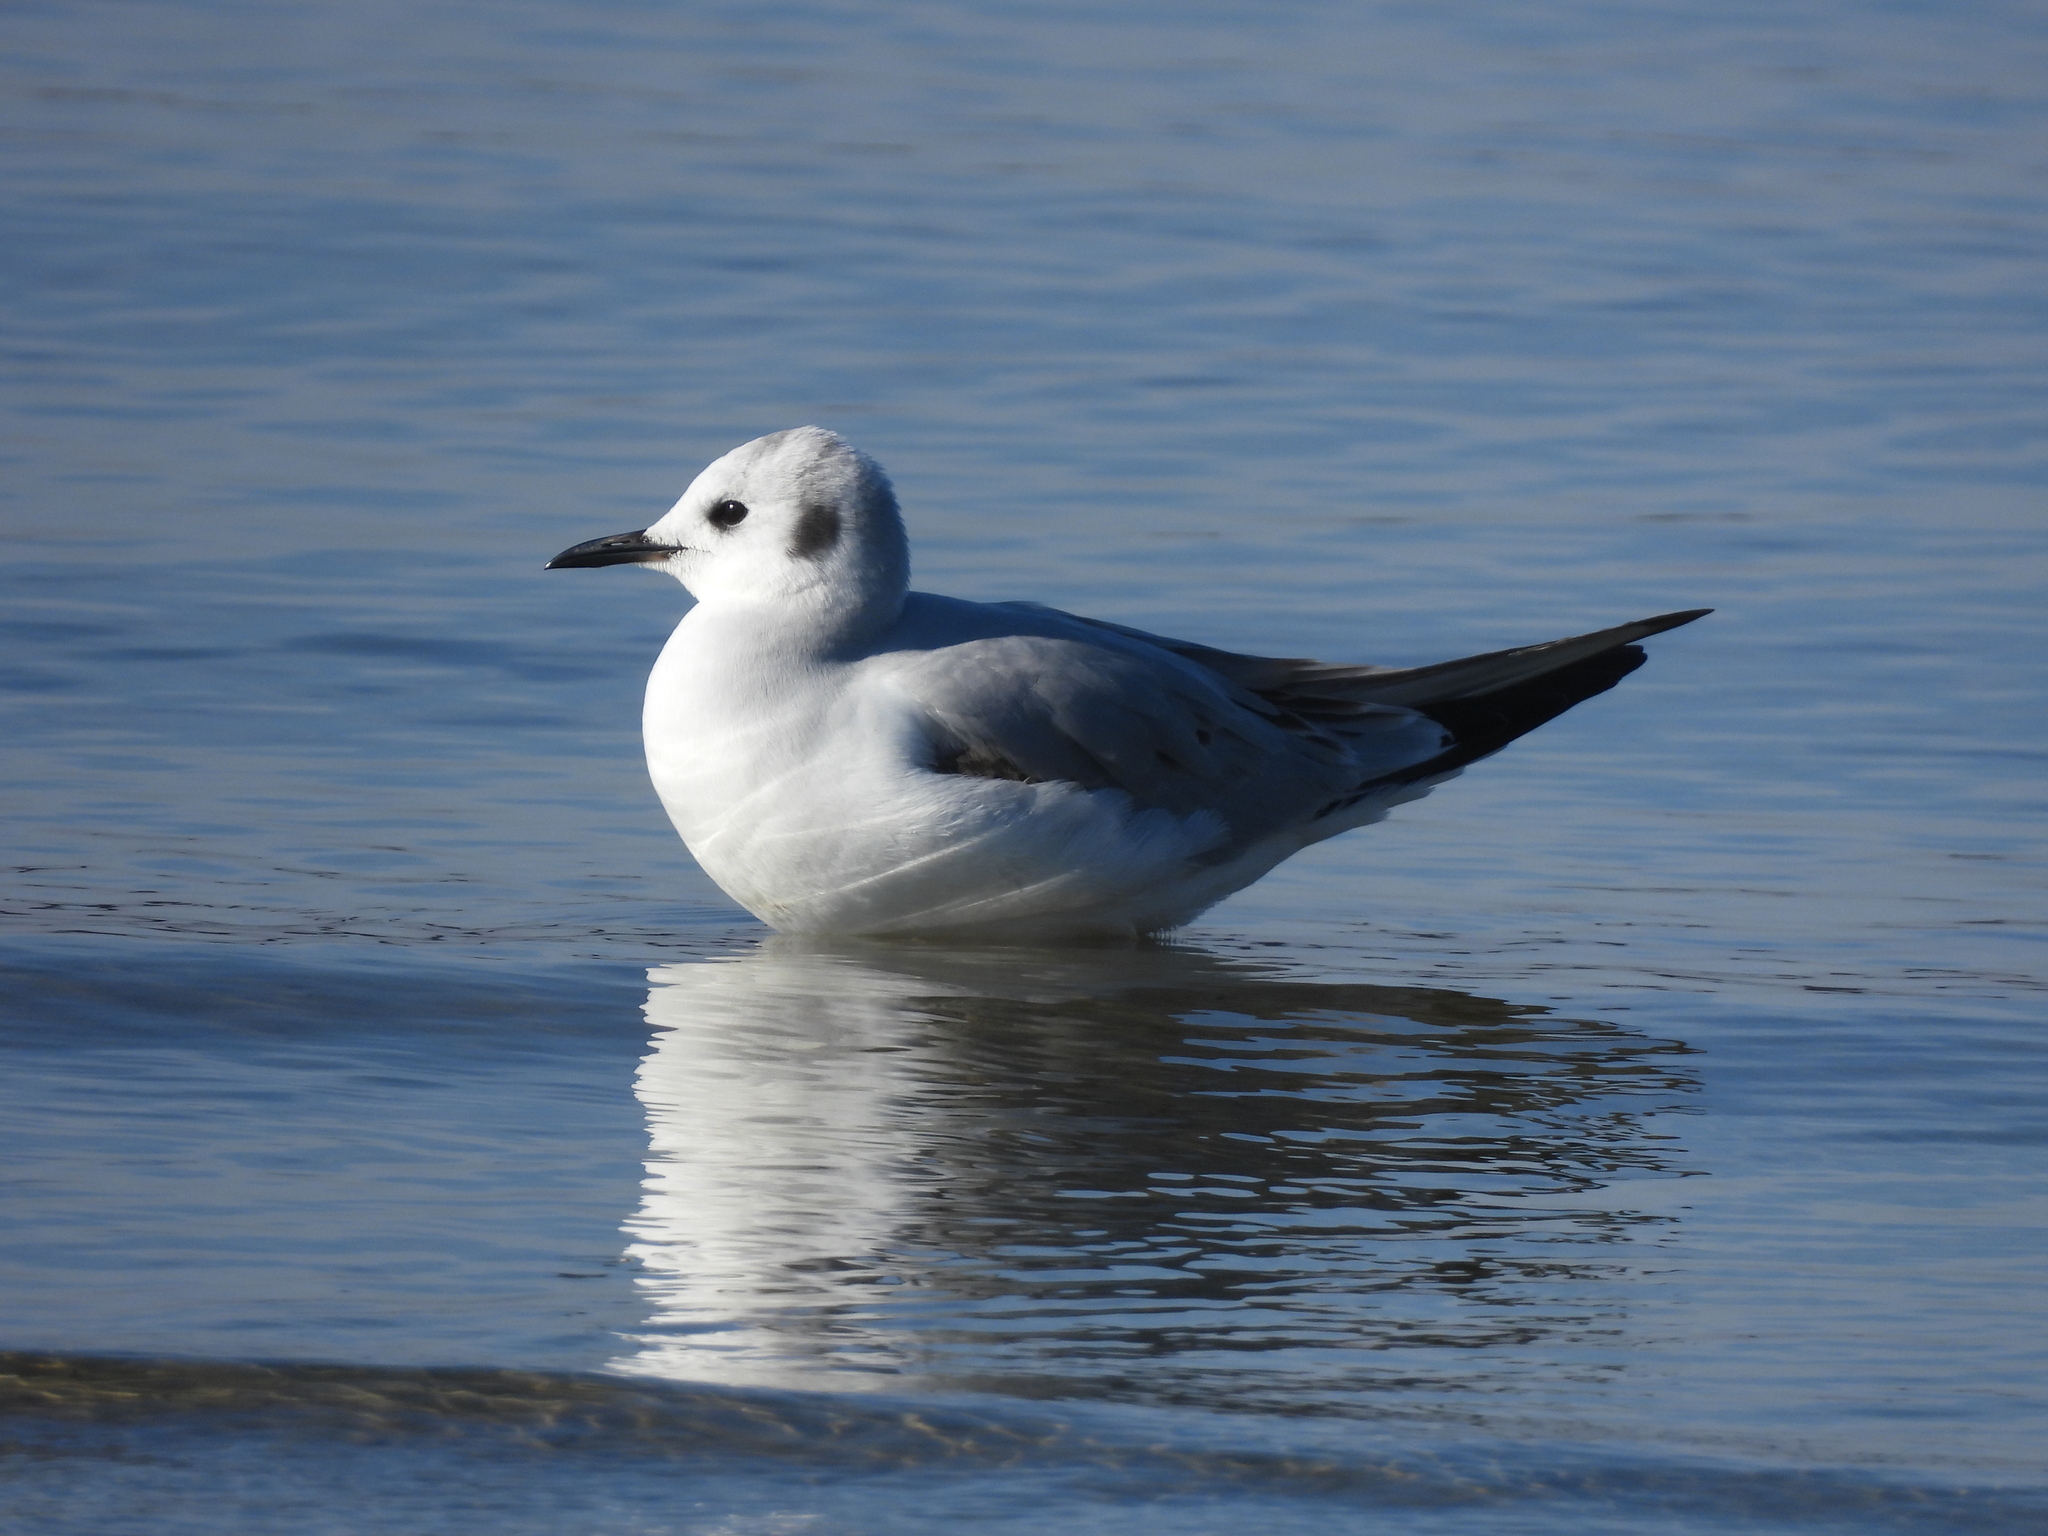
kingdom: Animalia
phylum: Chordata
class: Aves
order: Charadriiformes
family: Laridae
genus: Chroicocephalus
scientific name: Chroicocephalus philadelphia
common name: Bonaparte's gull
